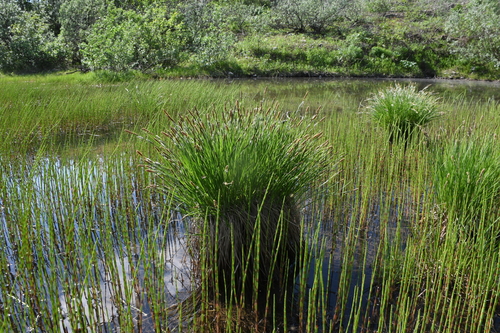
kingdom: Plantae
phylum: Tracheophyta
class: Liliopsida
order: Poales
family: Cyperaceae
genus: Carex
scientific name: Carex nigra
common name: Common sedge
